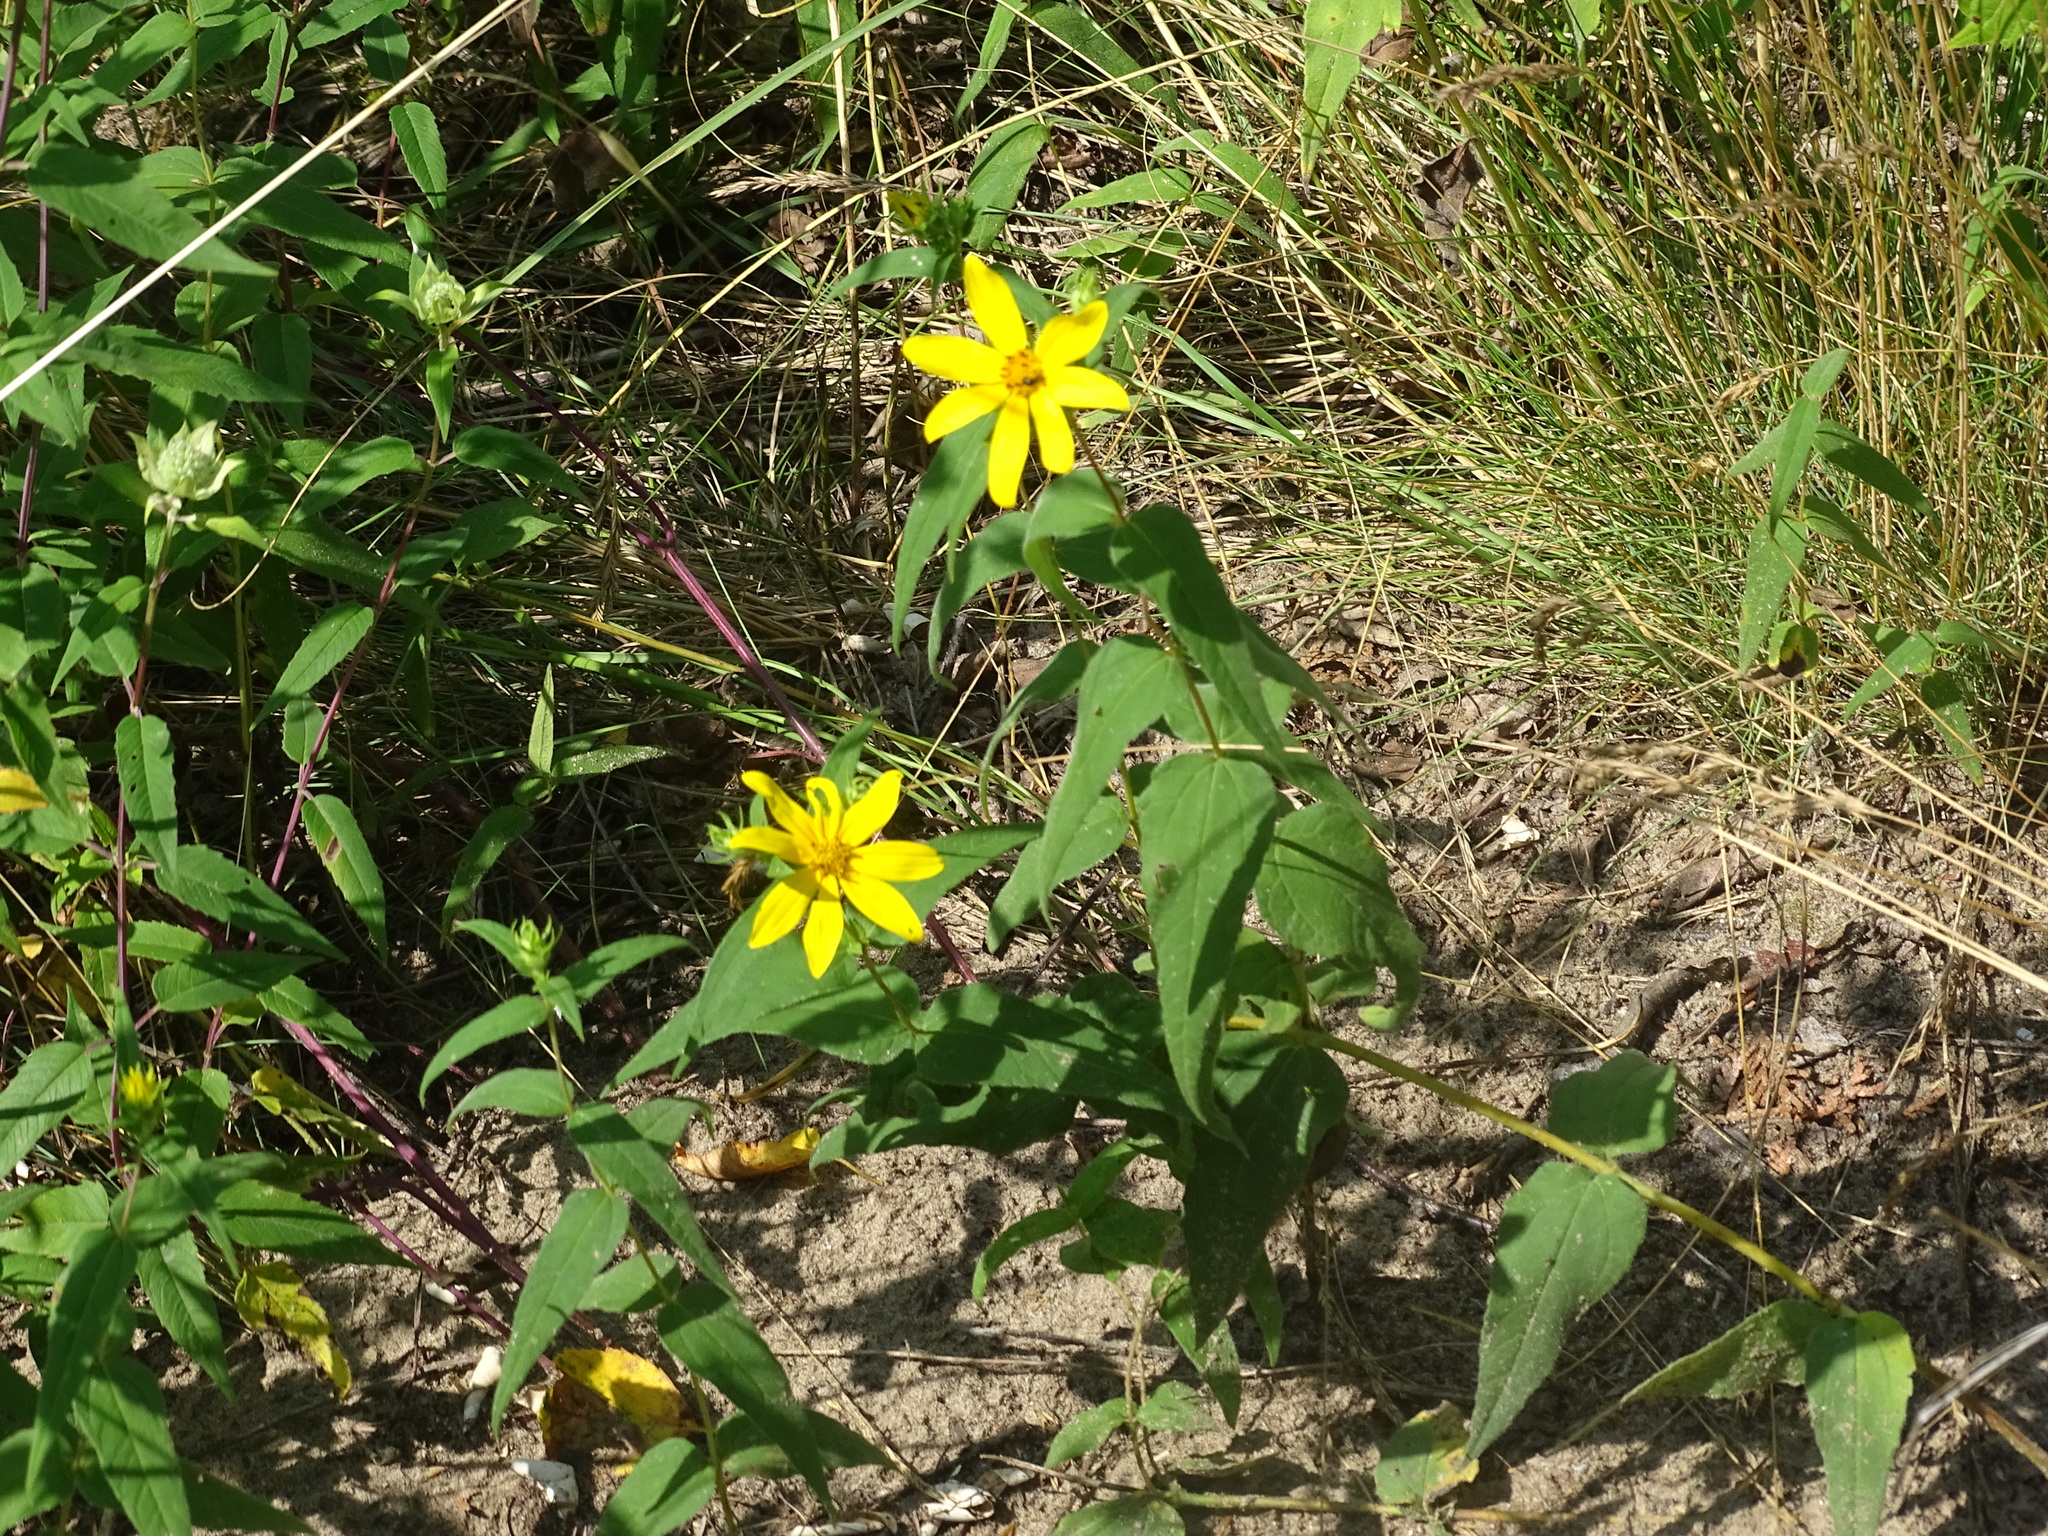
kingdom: Plantae
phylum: Tracheophyta
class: Magnoliopsida
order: Asterales
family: Asteraceae
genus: Helianthus
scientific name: Helianthus divaricatus
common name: Divergent sunflower
